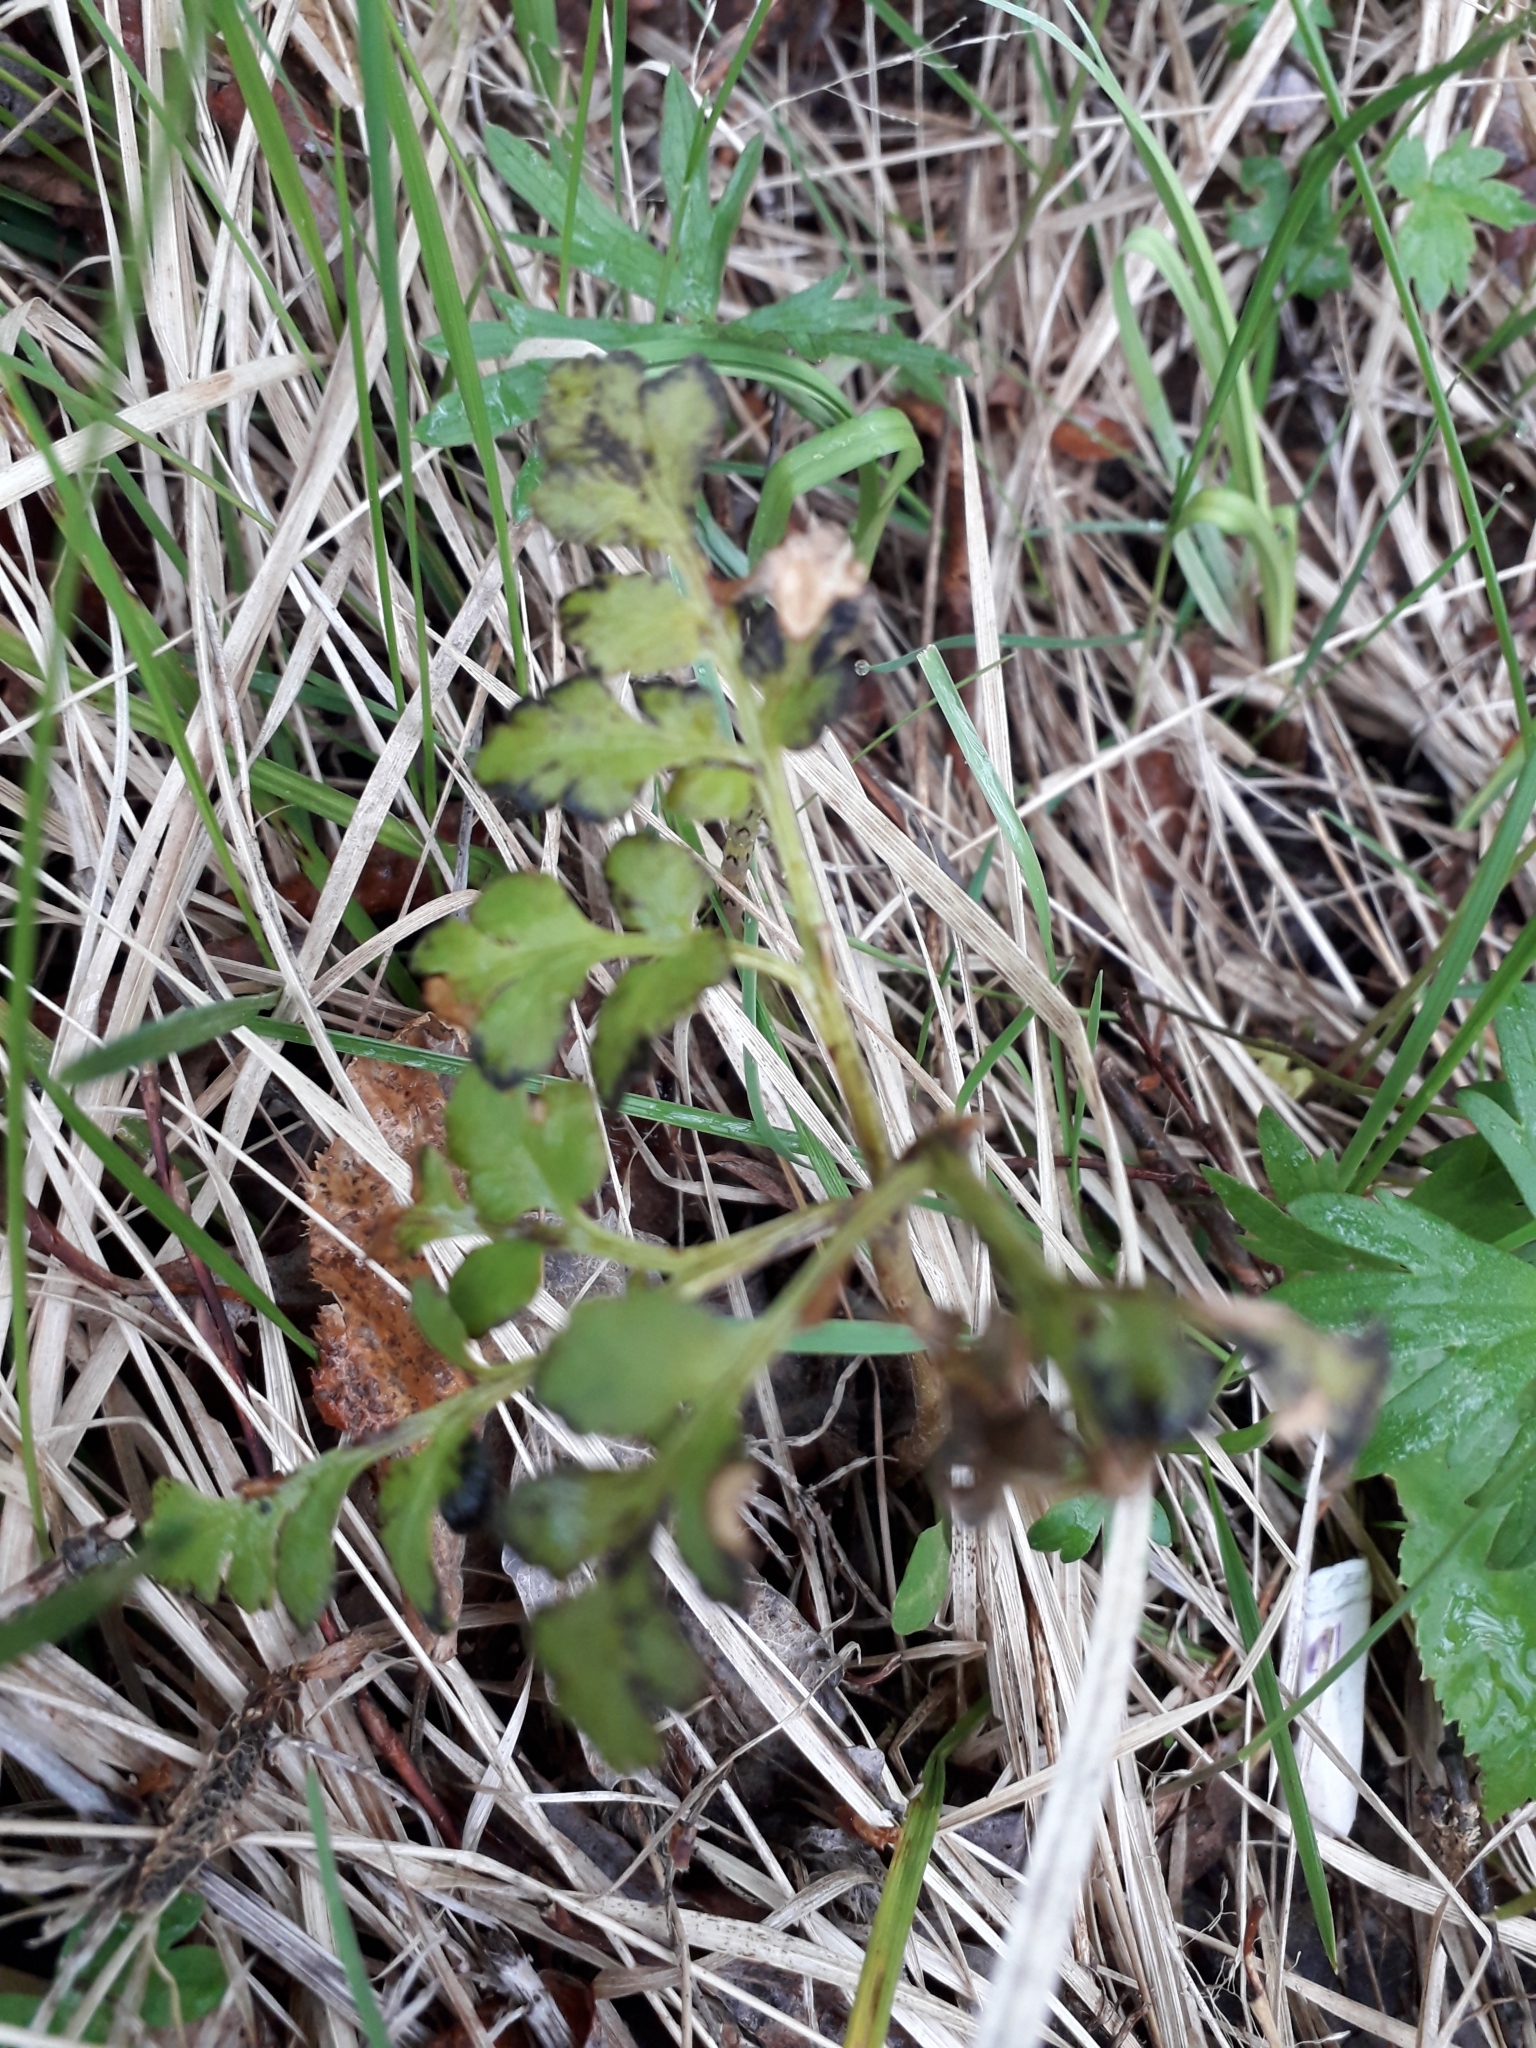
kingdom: Plantae
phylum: Tracheophyta
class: Polypodiopsida
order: Ophioglossales
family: Ophioglossaceae
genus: Sceptridium
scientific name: Sceptridium multifidum
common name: Leathery grape fern
